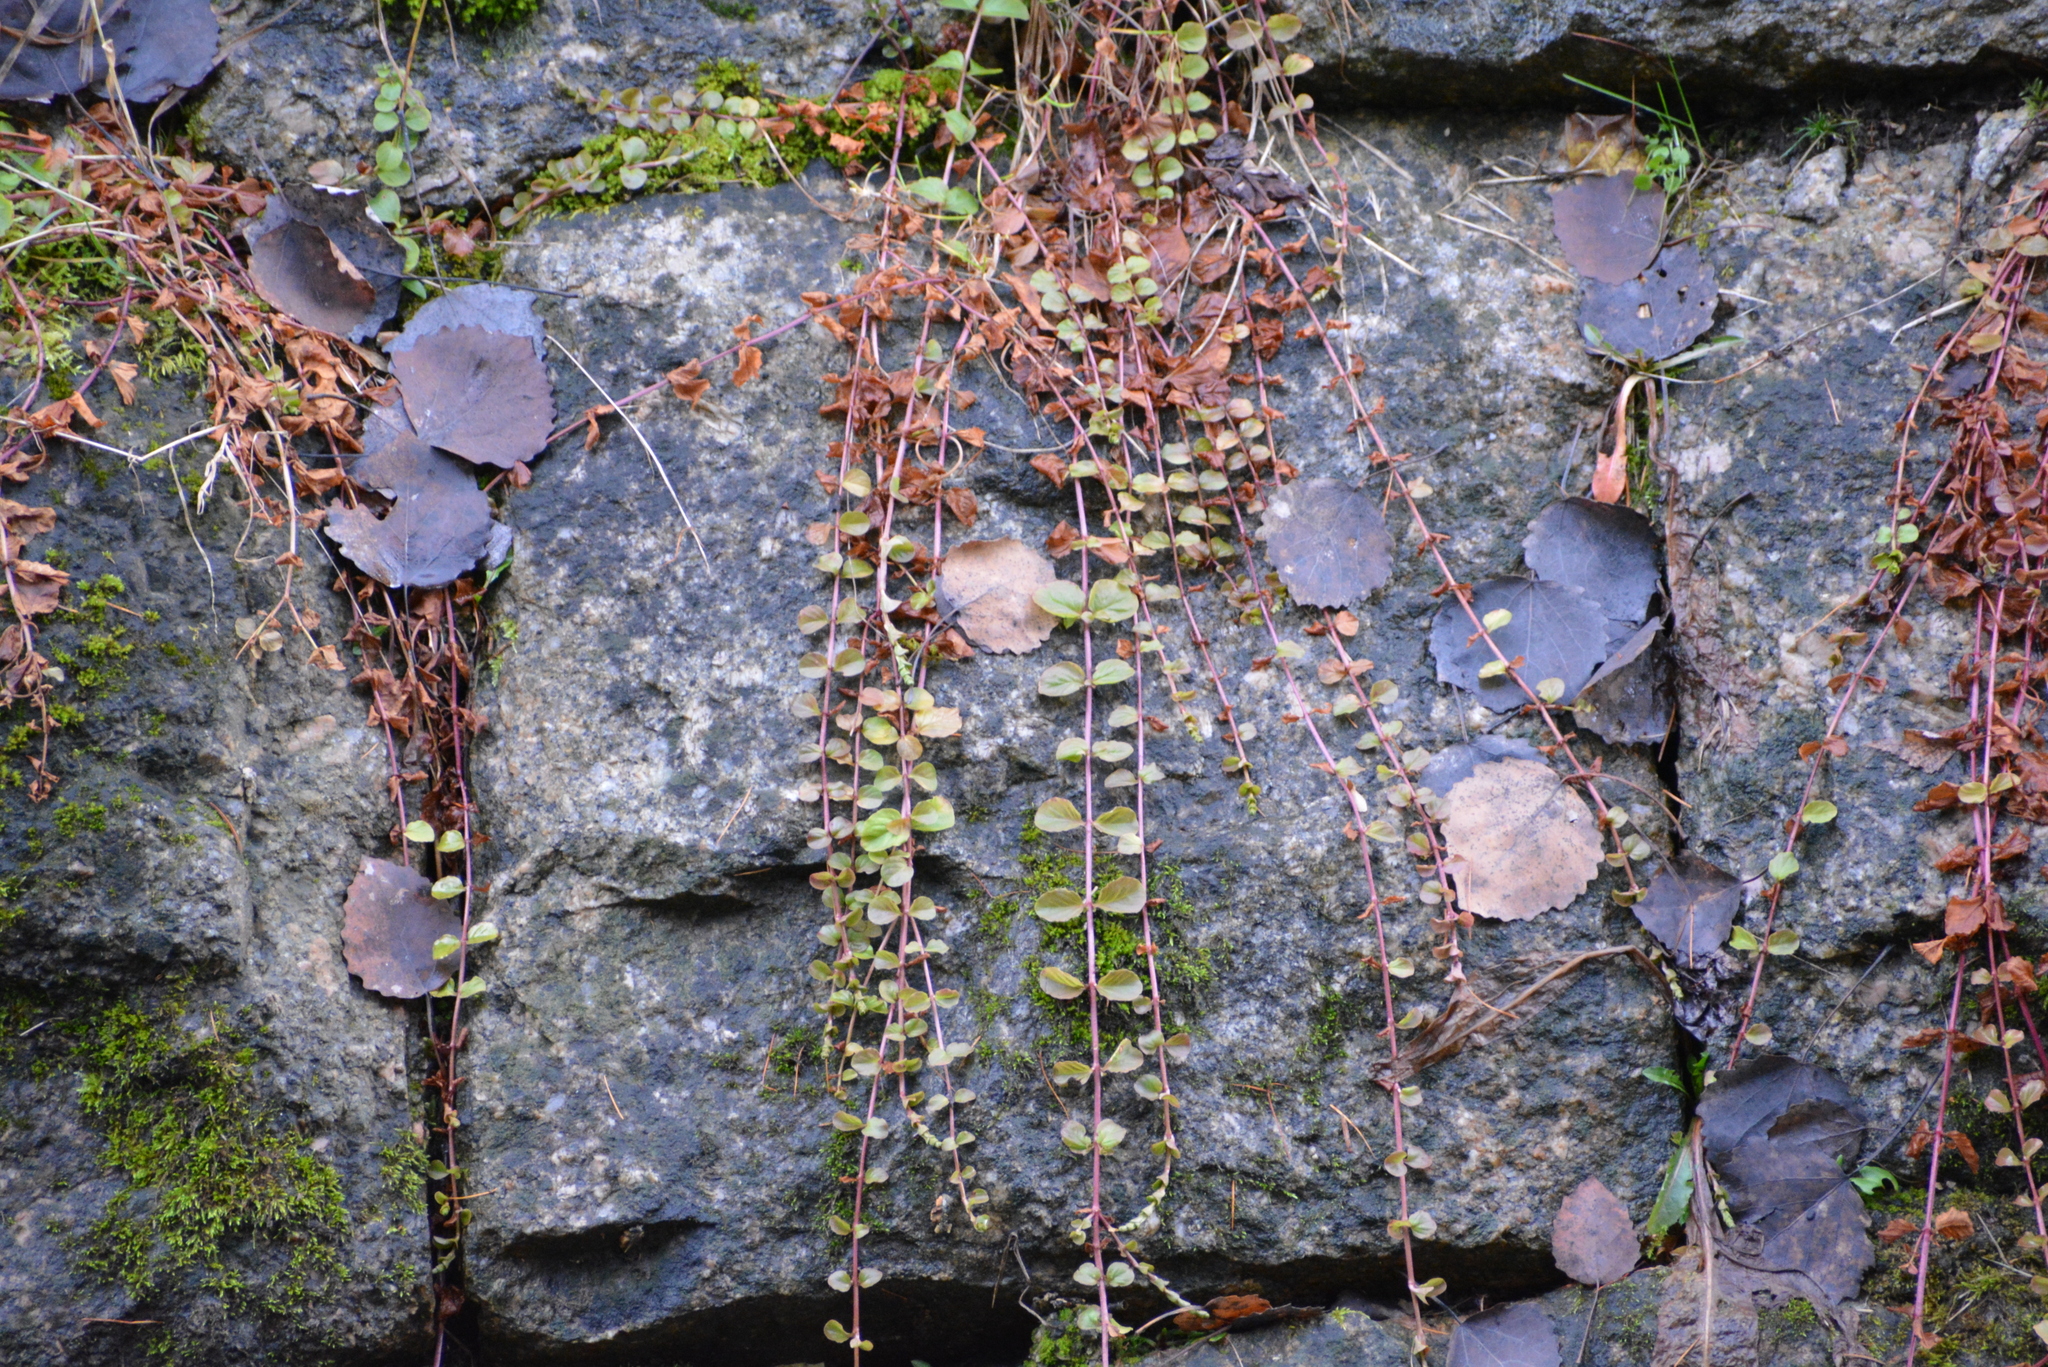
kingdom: Plantae
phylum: Tracheophyta
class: Magnoliopsida
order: Ericales
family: Primulaceae
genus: Lysimachia
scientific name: Lysimachia nummularia
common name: Moneywort
